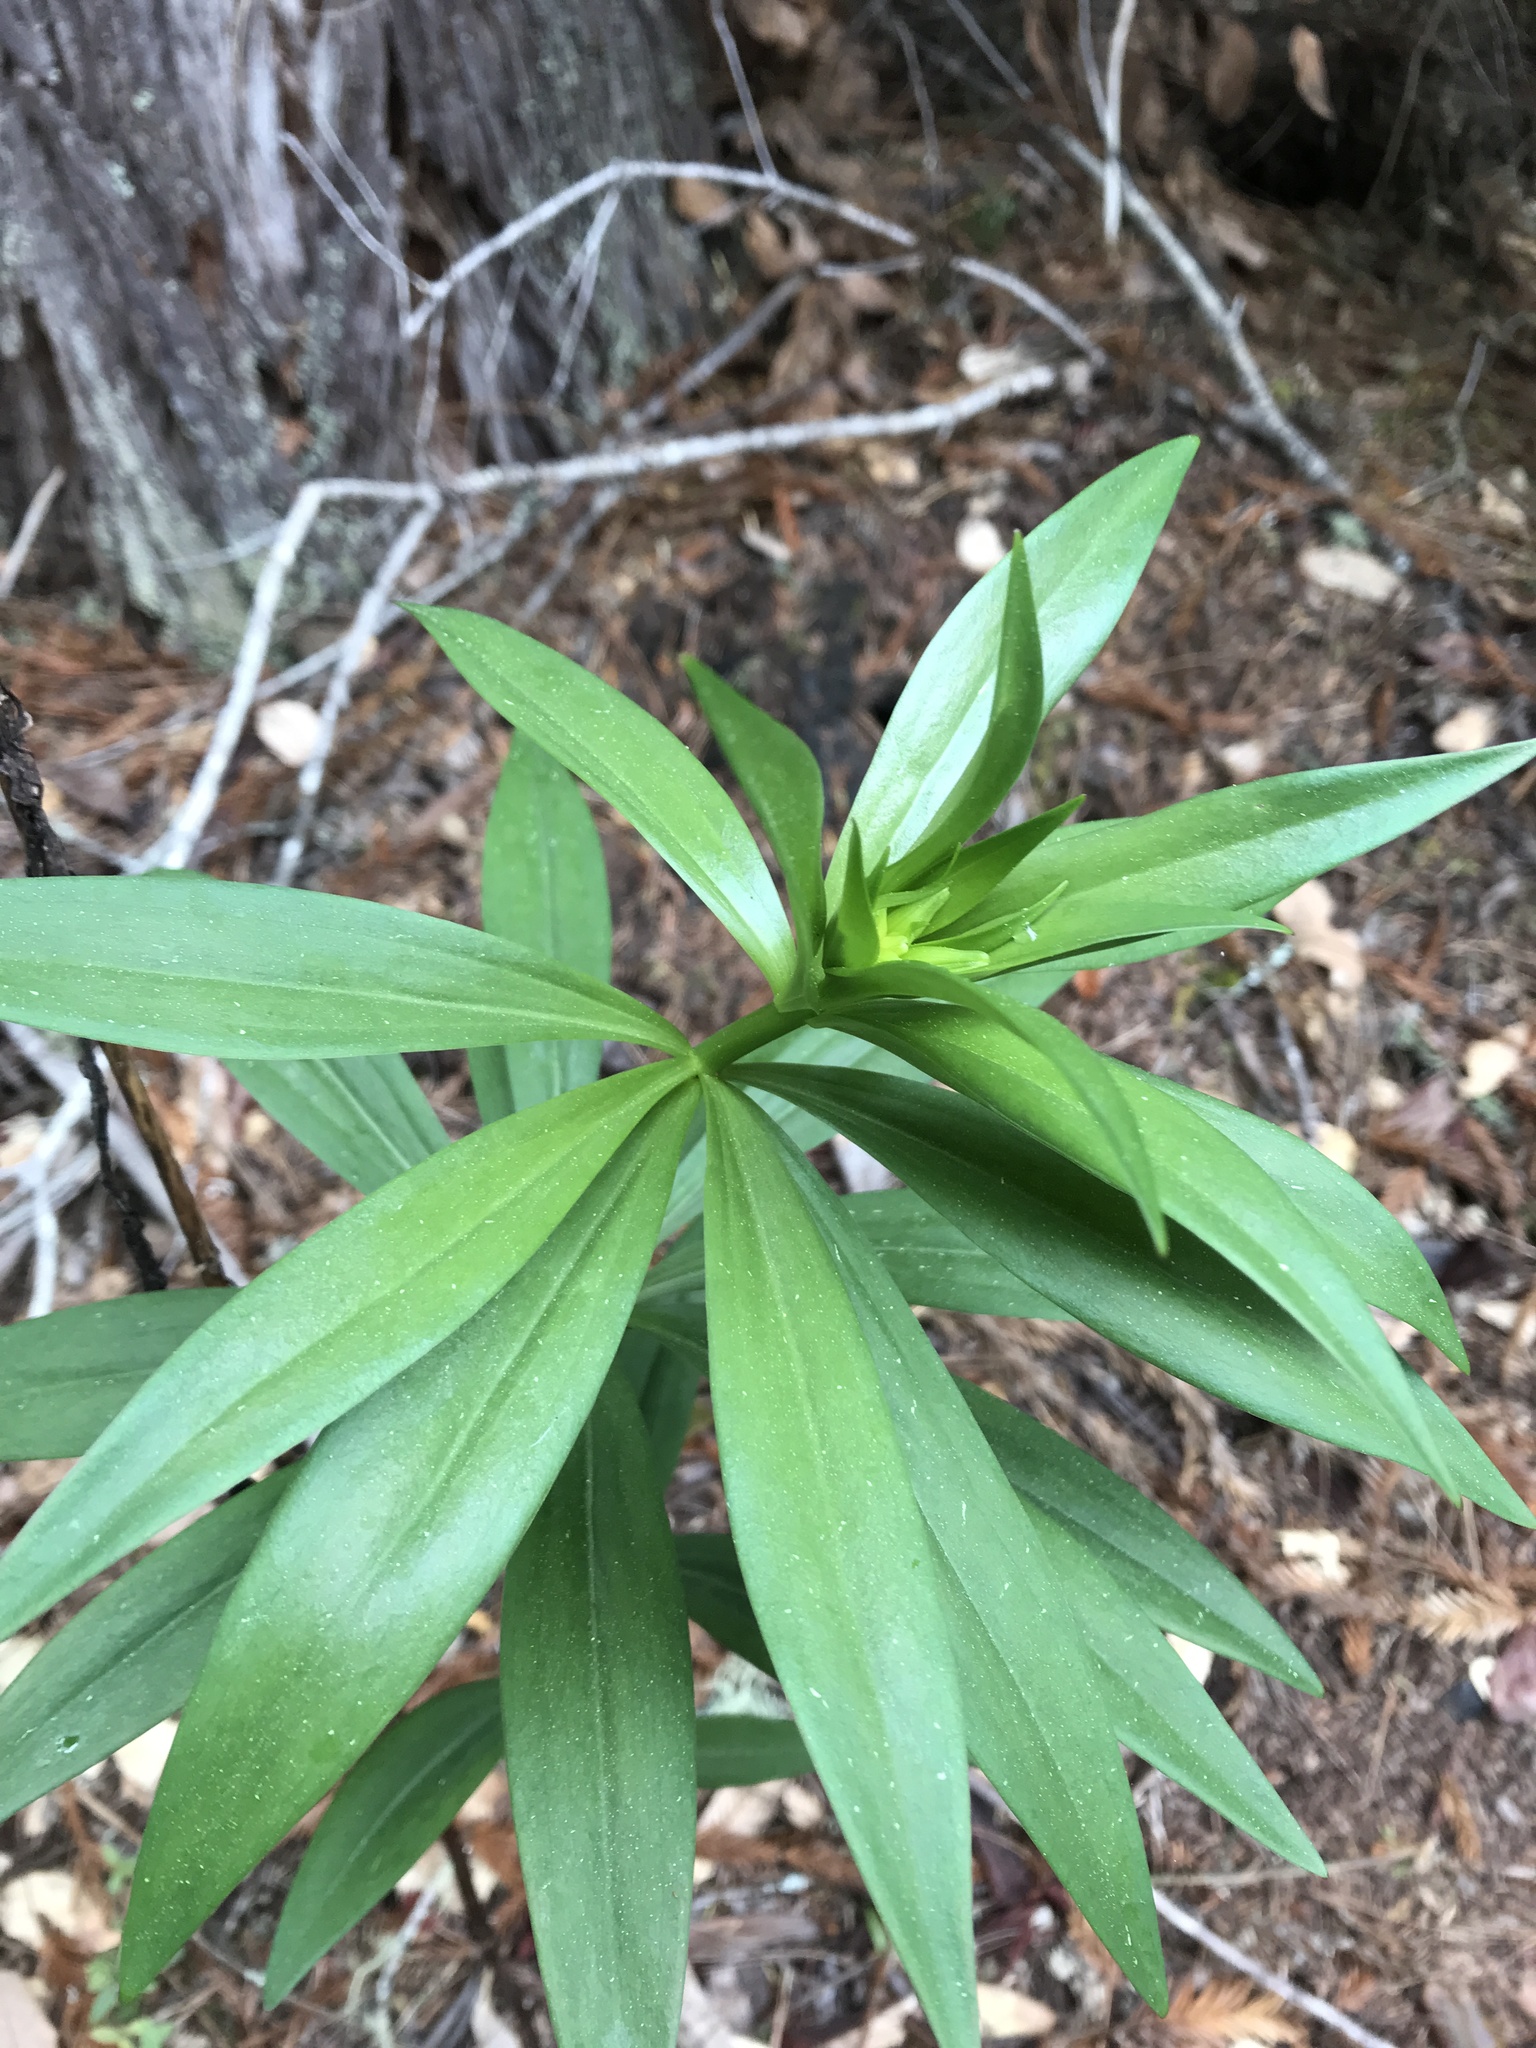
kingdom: Plantae
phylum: Tracheophyta
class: Liliopsida
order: Liliales
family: Liliaceae
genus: Lilium
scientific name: Lilium maritimum
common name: Coastal lily
